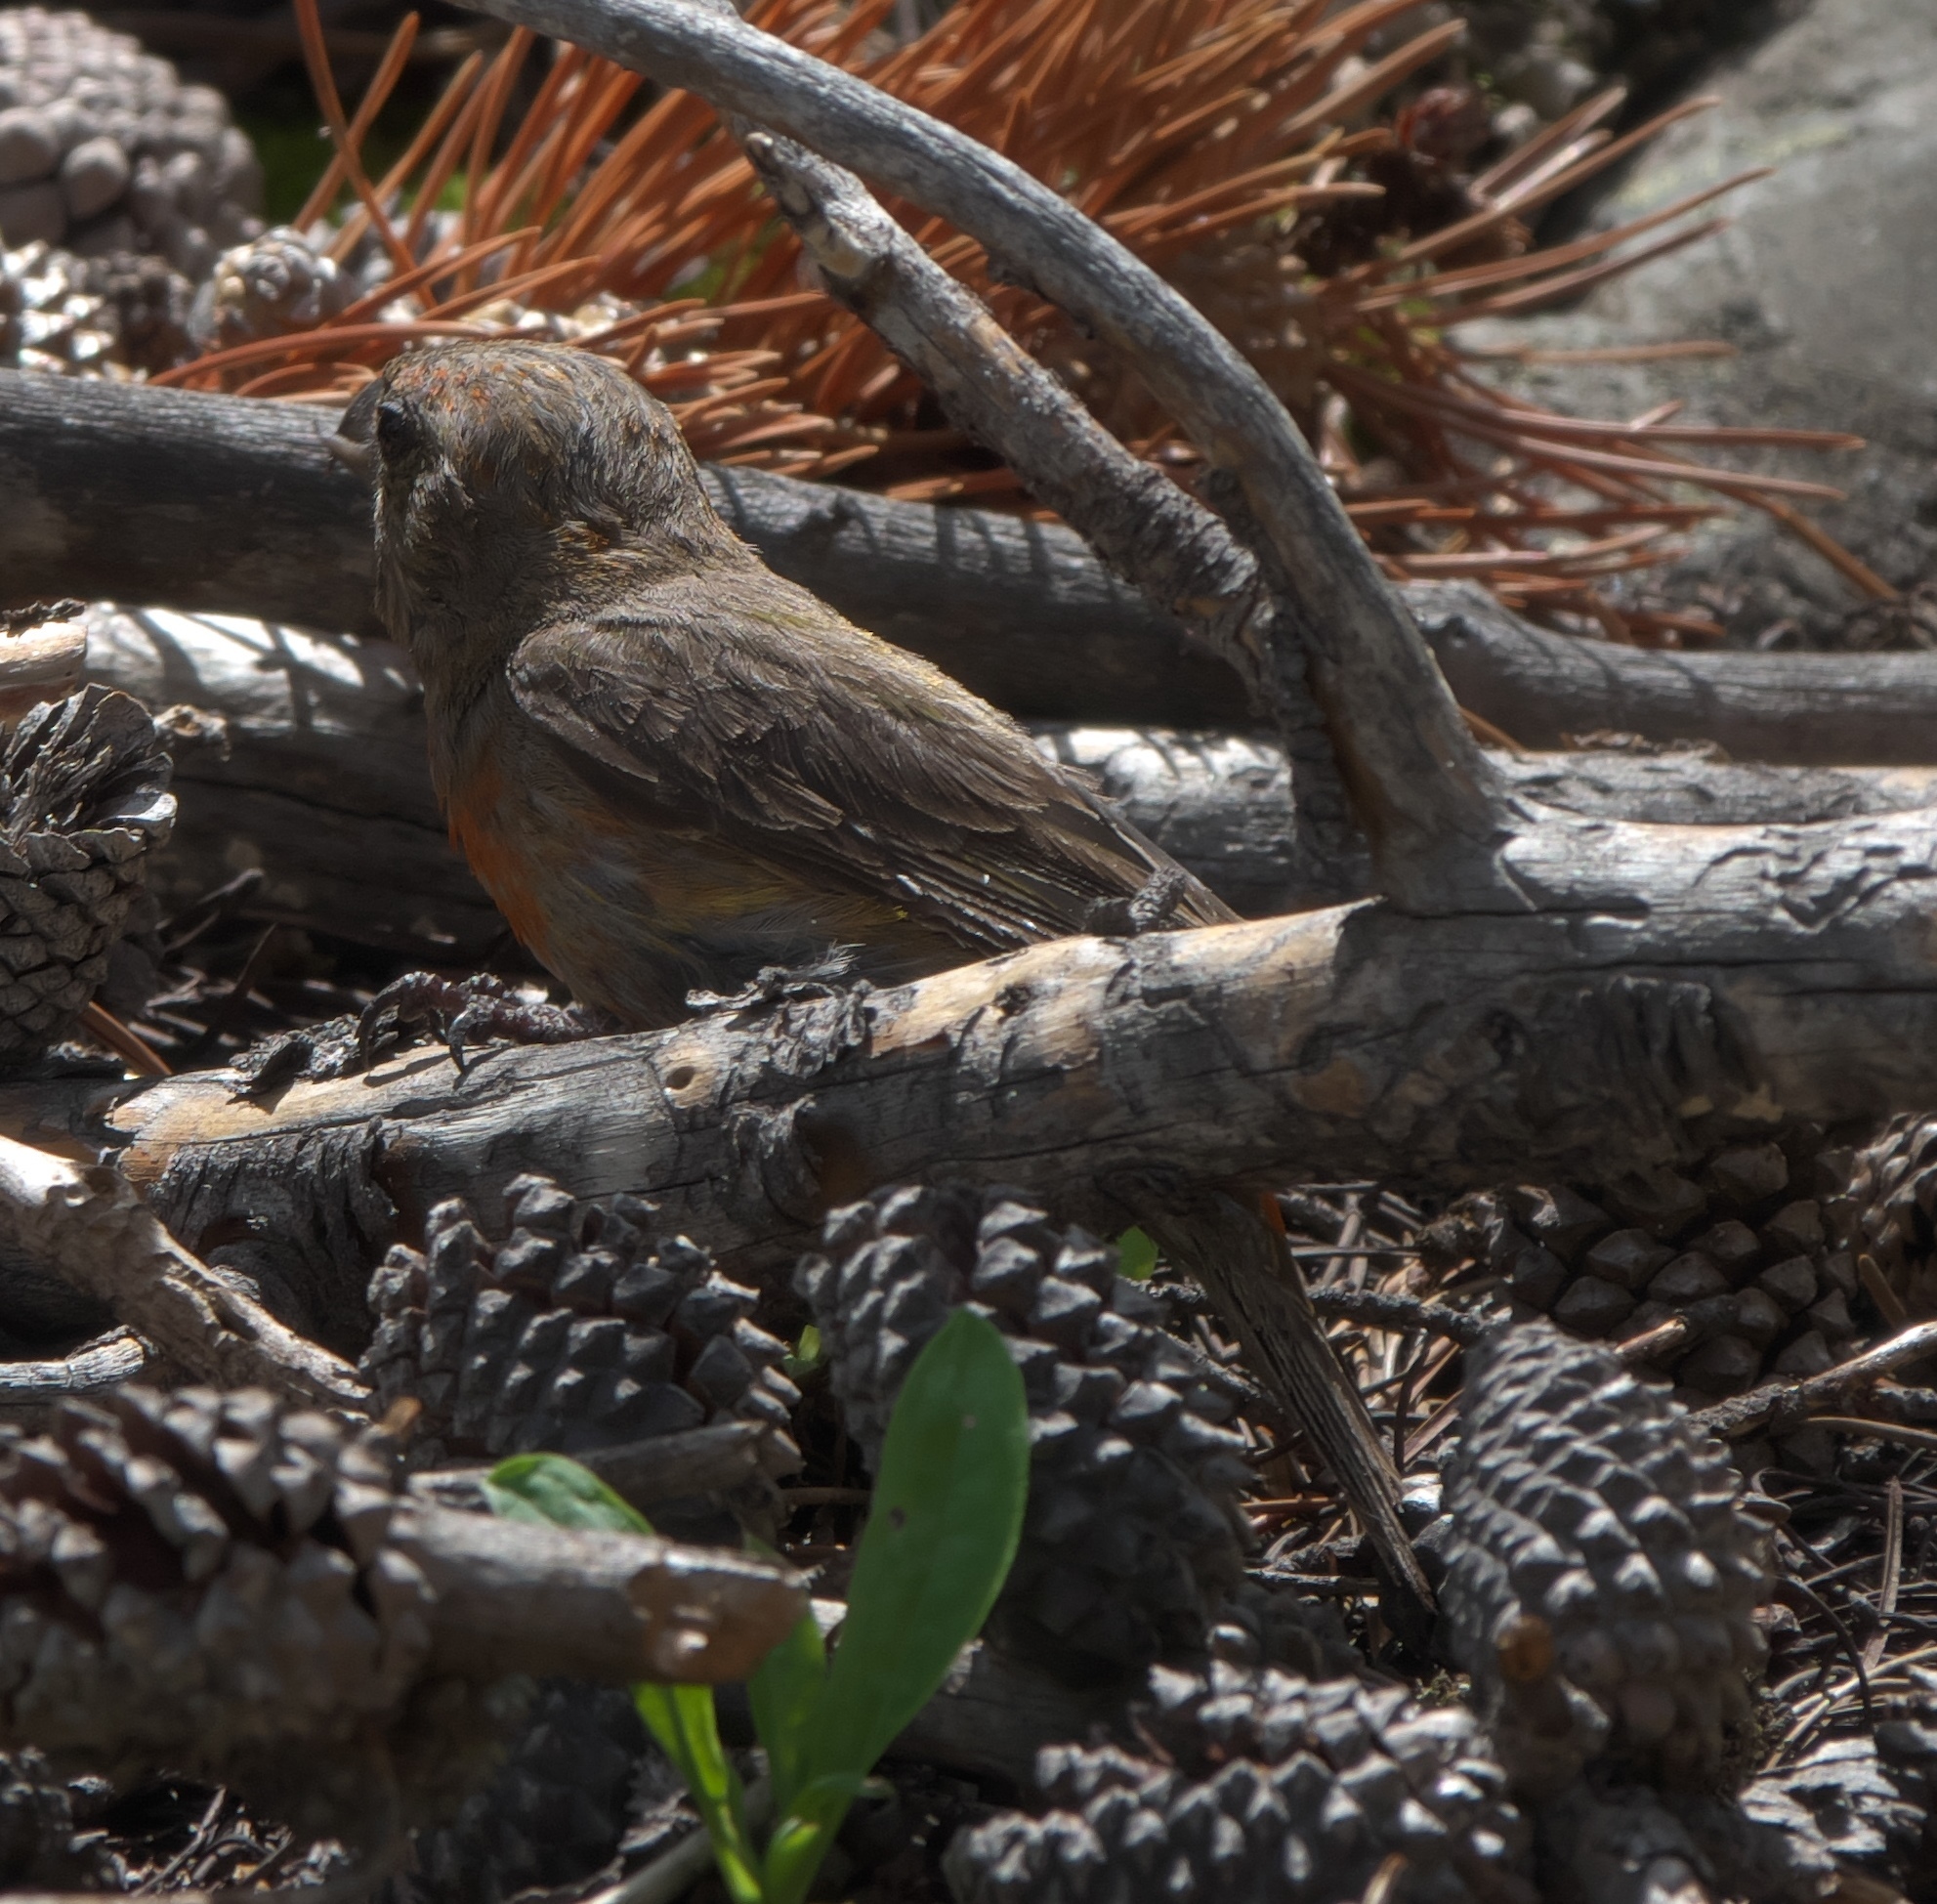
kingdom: Animalia
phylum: Chordata
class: Aves
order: Passeriformes
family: Fringillidae
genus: Loxia
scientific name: Loxia curvirostra
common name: Red crossbill
